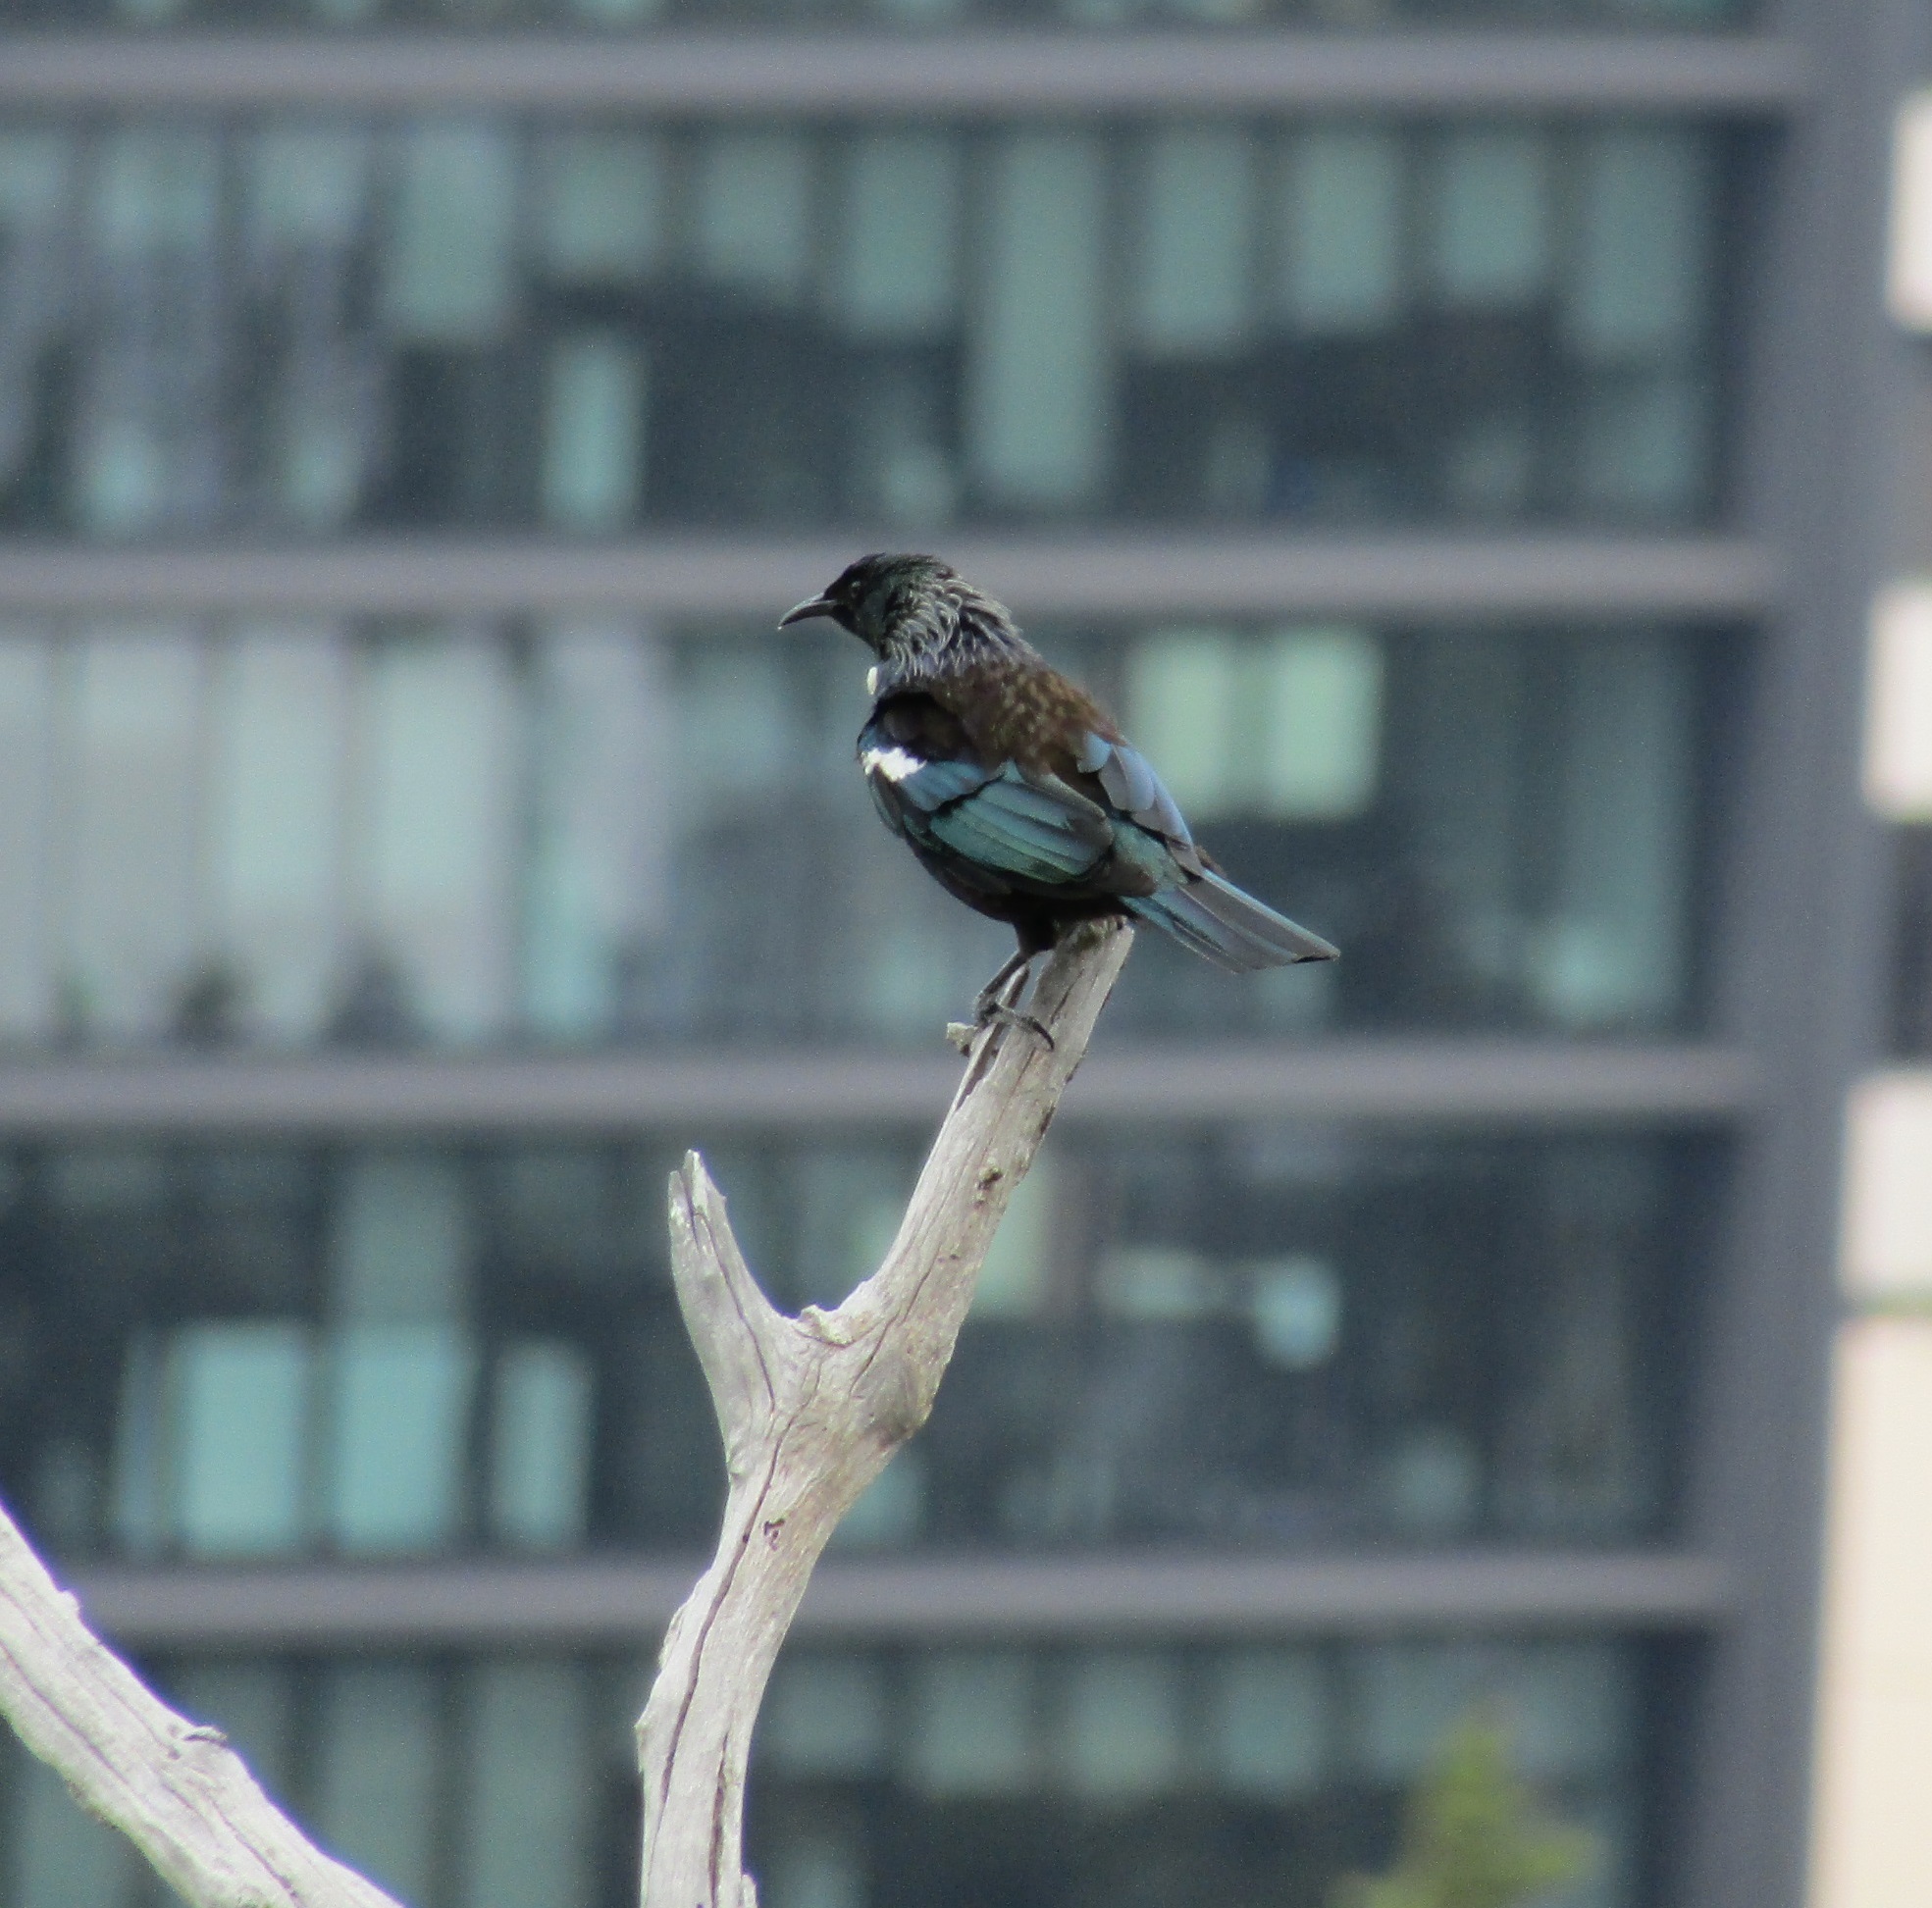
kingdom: Animalia
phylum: Chordata
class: Aves
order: Passeriformes
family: Meliphagidae
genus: Prosthemadera
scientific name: Prosthemadera novaeseelandiae
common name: Tui
